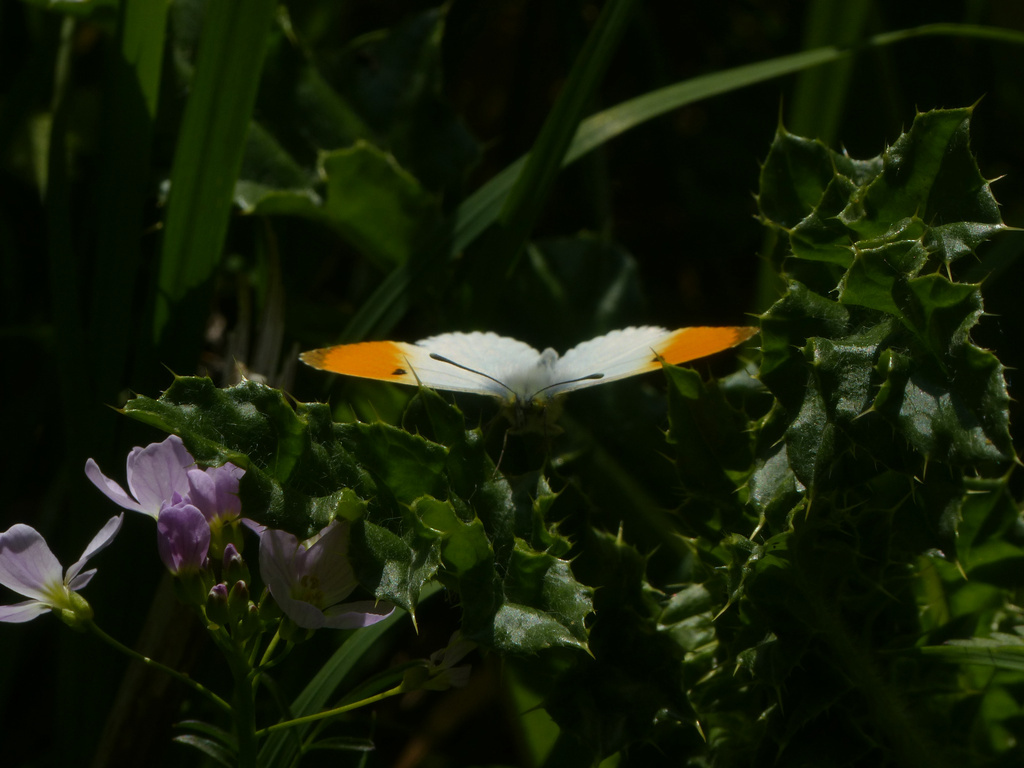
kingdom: Animalia
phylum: Arthropoda
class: Insecta
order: Lepidoptera
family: Pieridae
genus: Anthocharis
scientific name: Anthocharis cardamines
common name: Orange-tip
